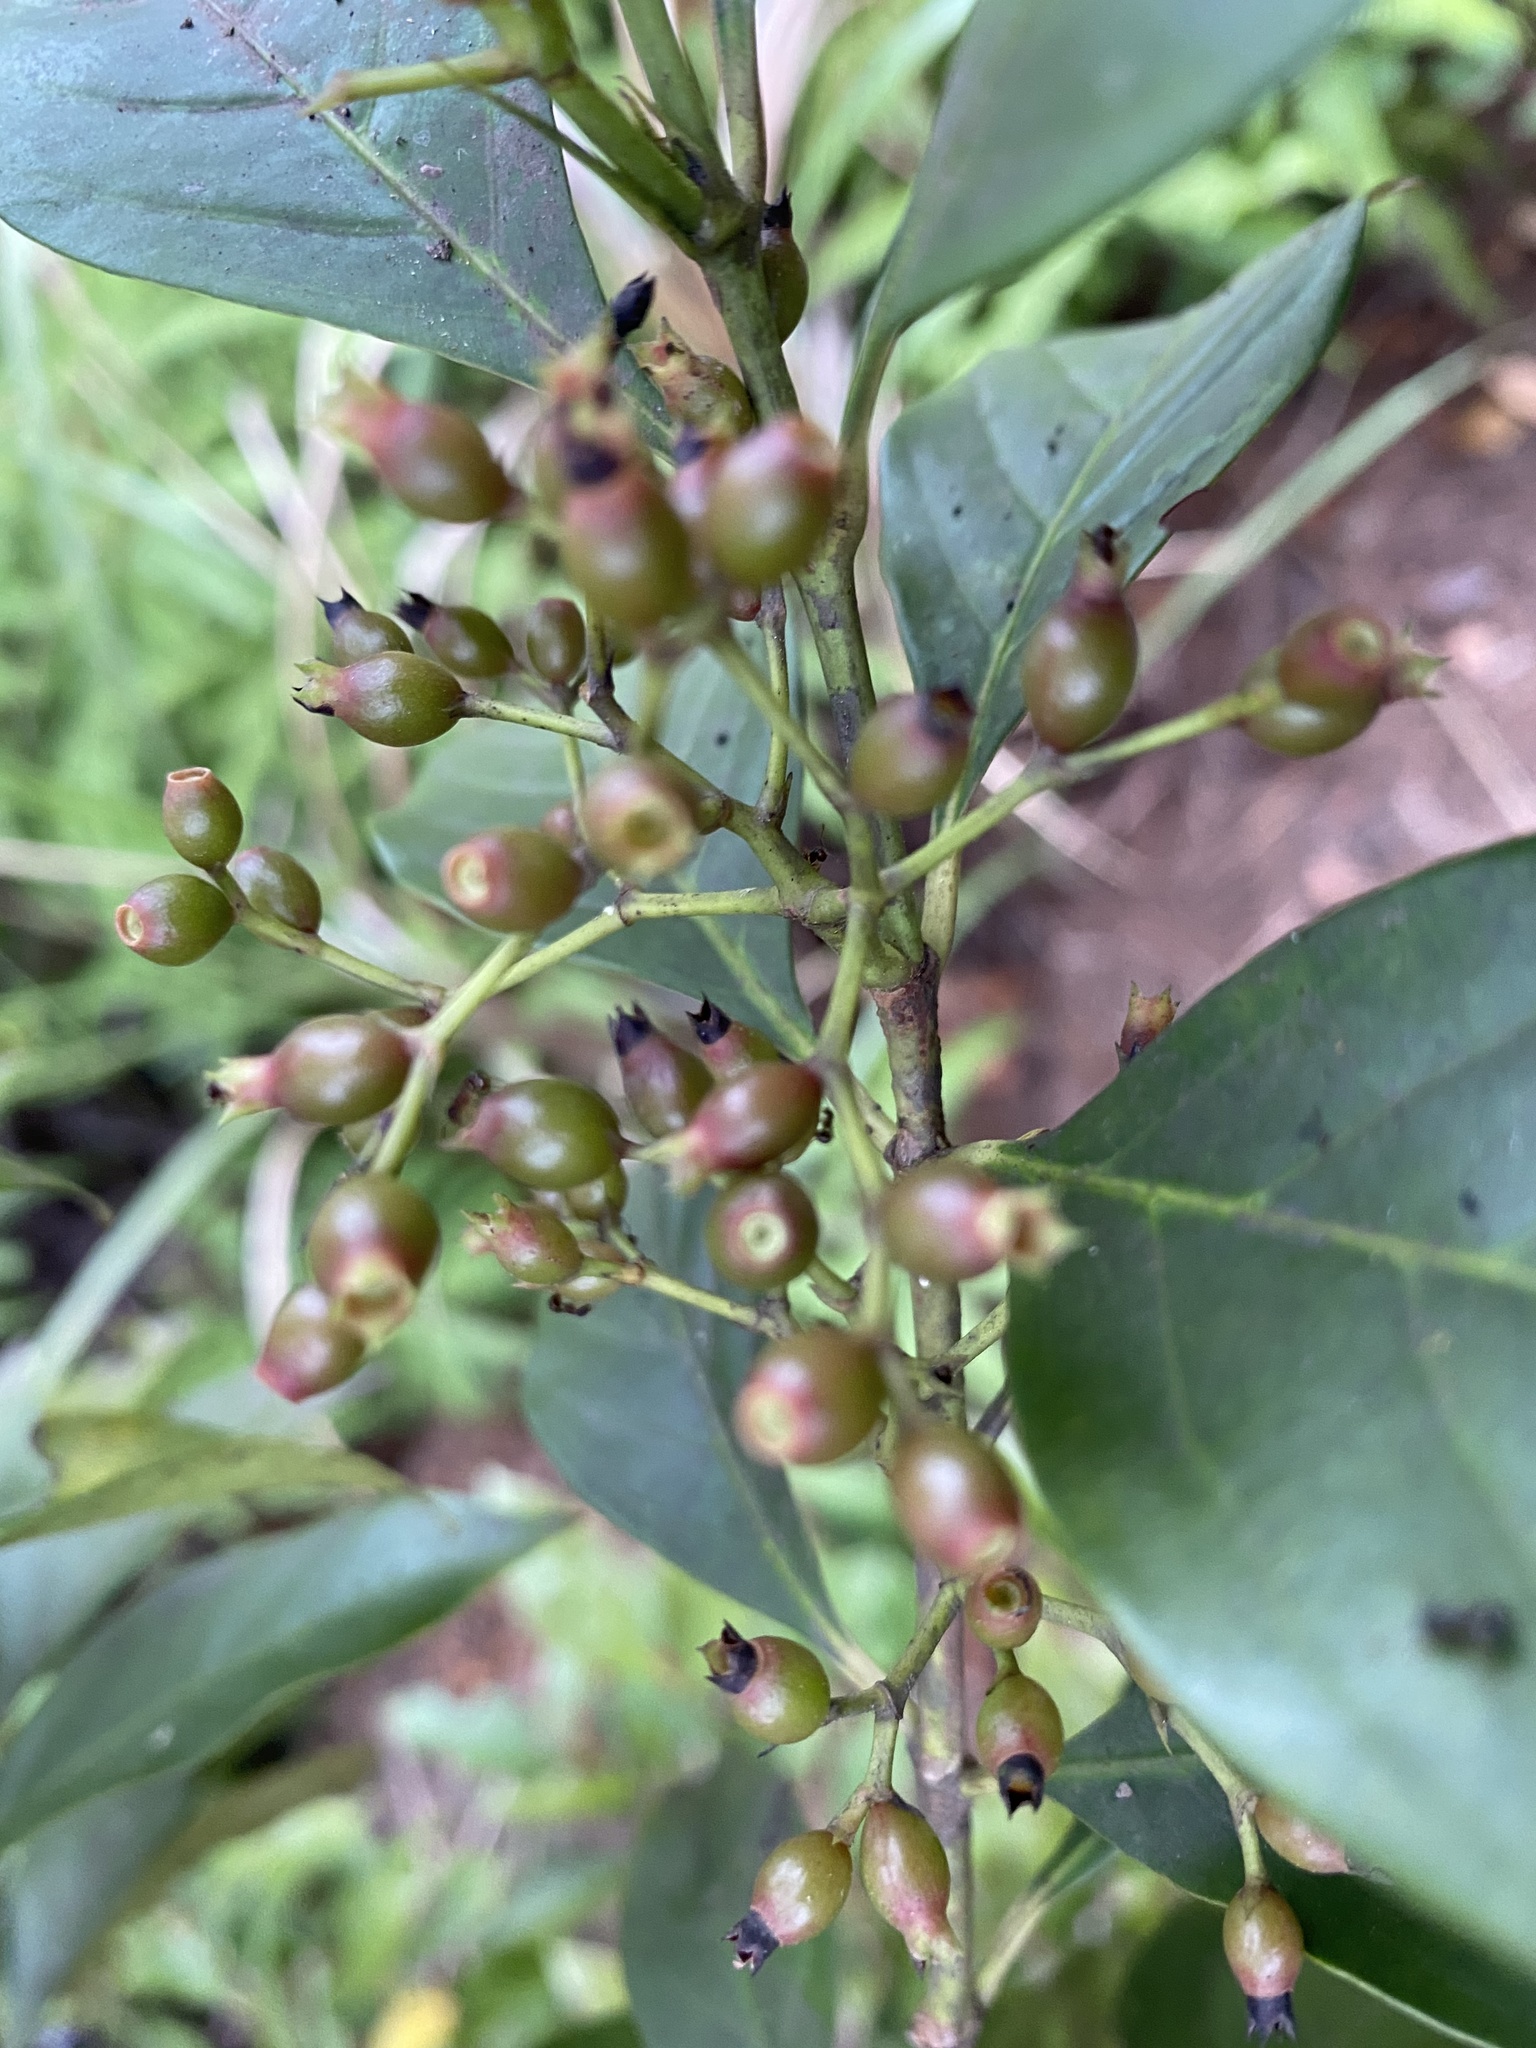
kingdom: Plantae
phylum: Tracheophyta
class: Magnoliopsida
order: Gentianales
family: Rubiaceae
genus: Aidia
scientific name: Aidia cochinchinensis
